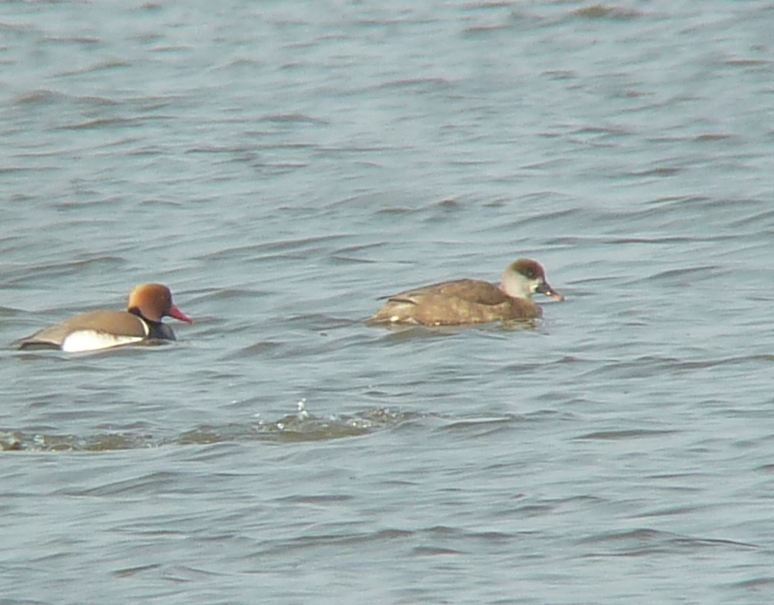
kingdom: Animalia
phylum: Chordata
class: Aves
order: Anseriformes
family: Anatidae
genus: Netta
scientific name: Netta rufina
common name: Red-crested pochard
